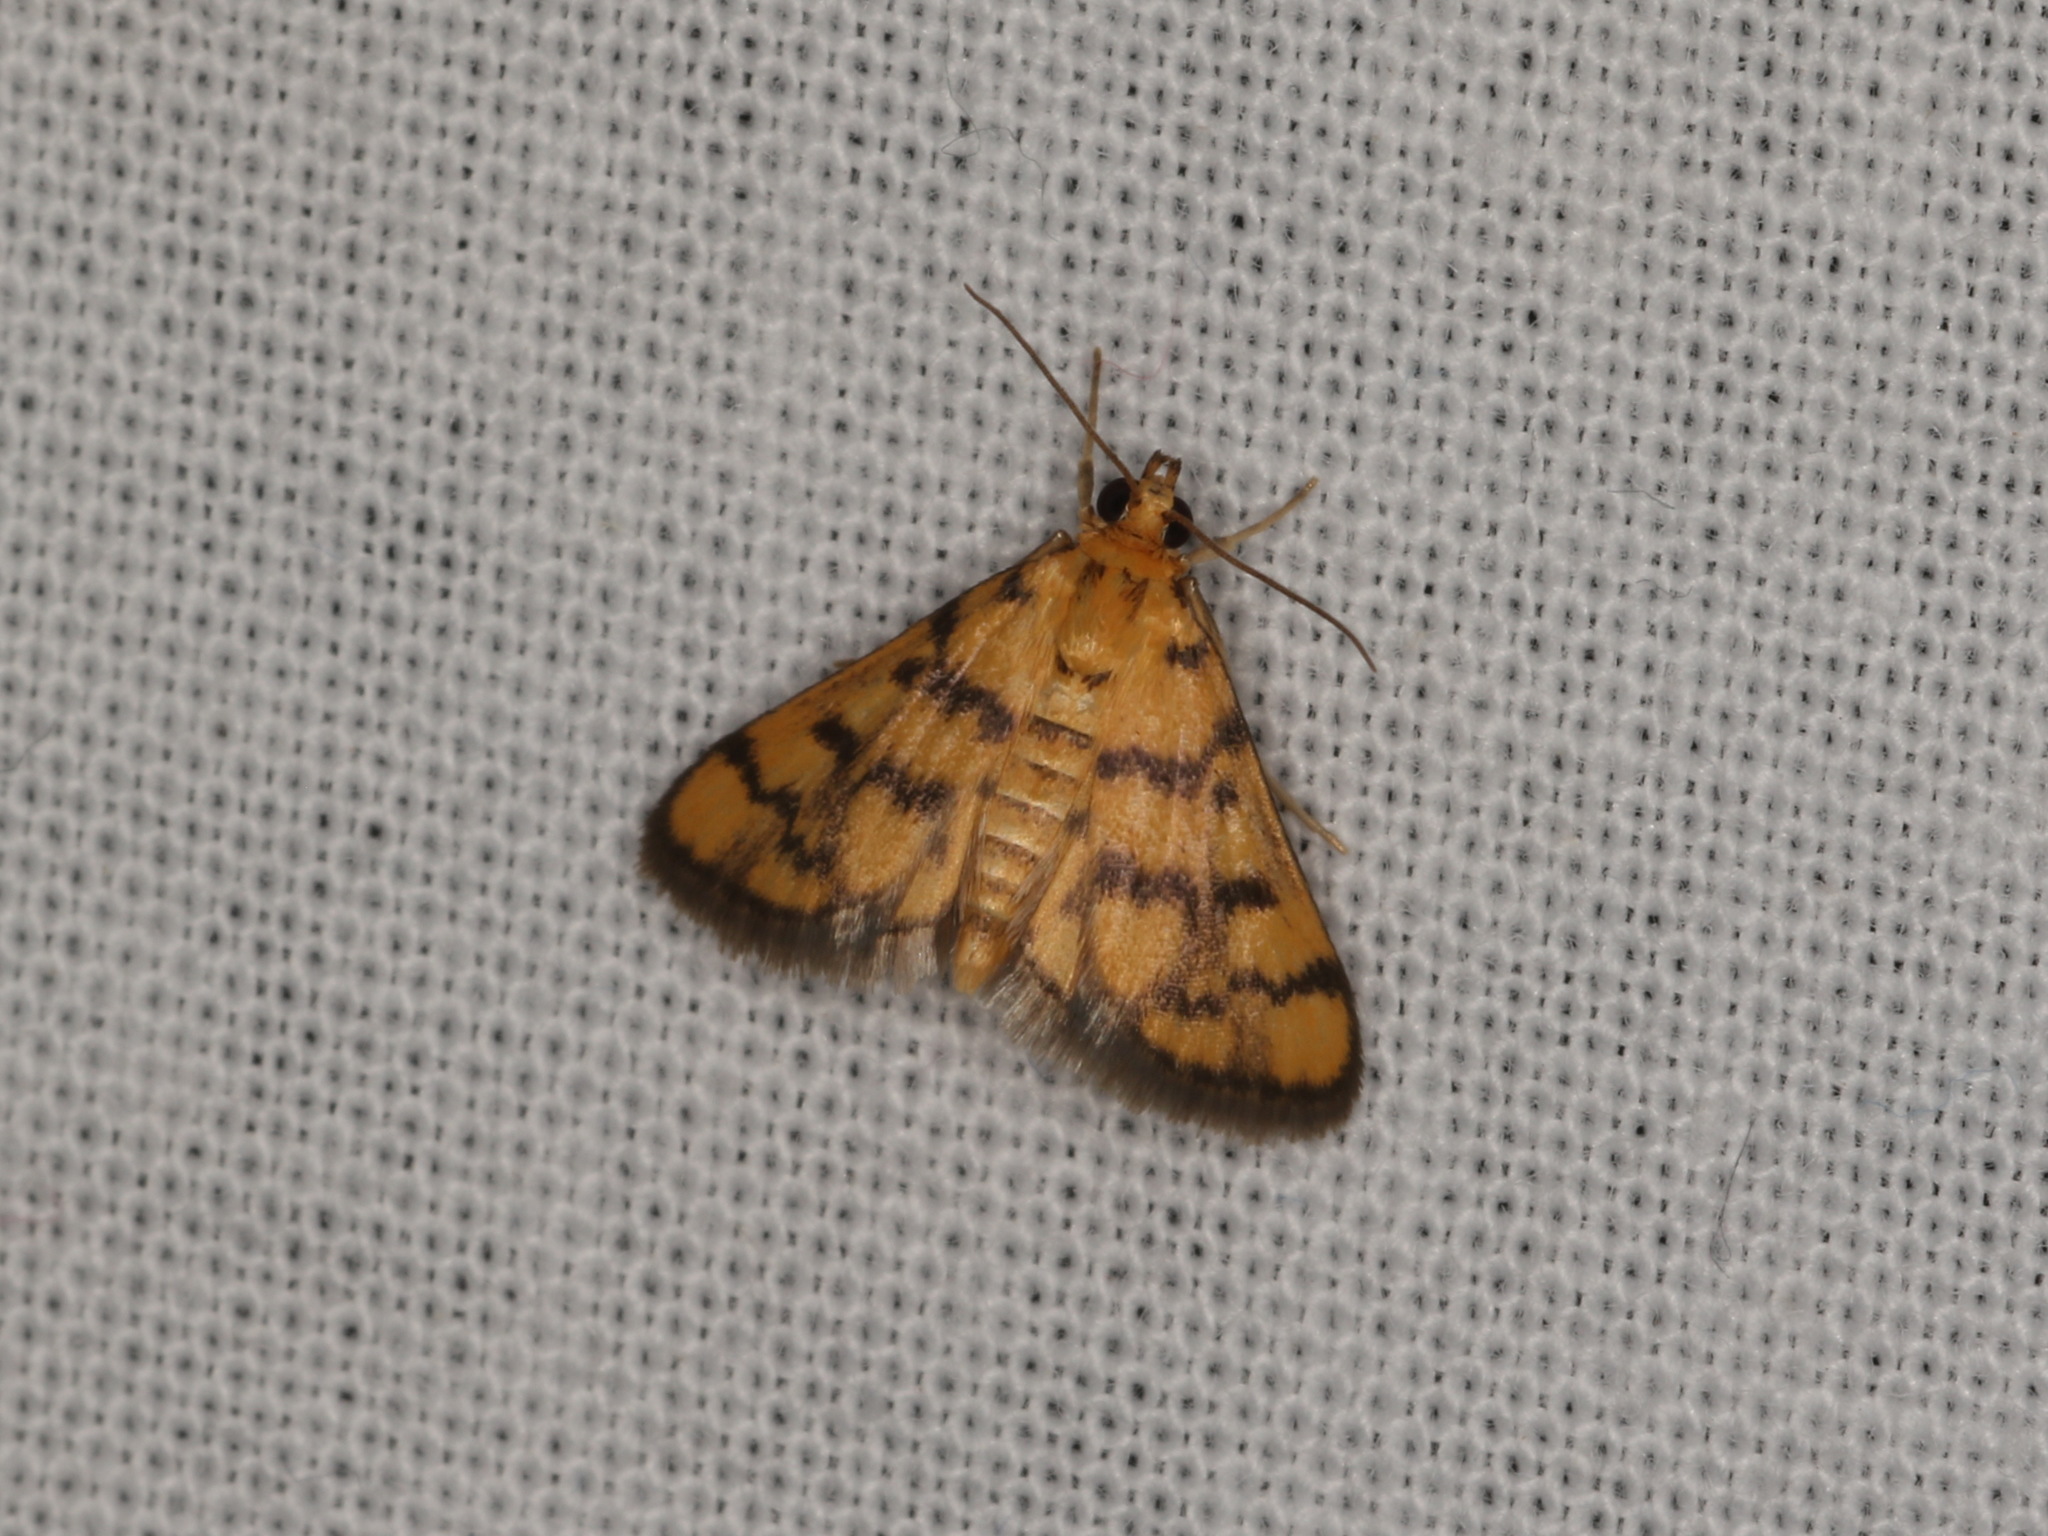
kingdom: Animalia
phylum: Arthropoda
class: Insecta
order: Lepidoptera
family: Crambidae
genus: Glycythyma
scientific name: Glycythyma thymedes
